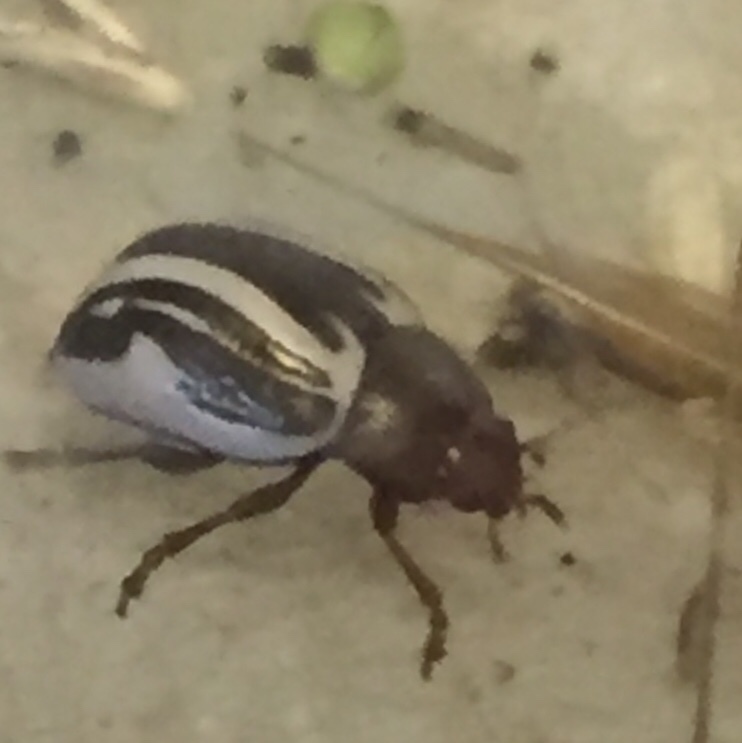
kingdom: Animalia
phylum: Arthropoda
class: Insecta
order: Coleoptera
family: Chrysomelidae
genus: Calligrapha
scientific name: Calligrapha bidenticola
